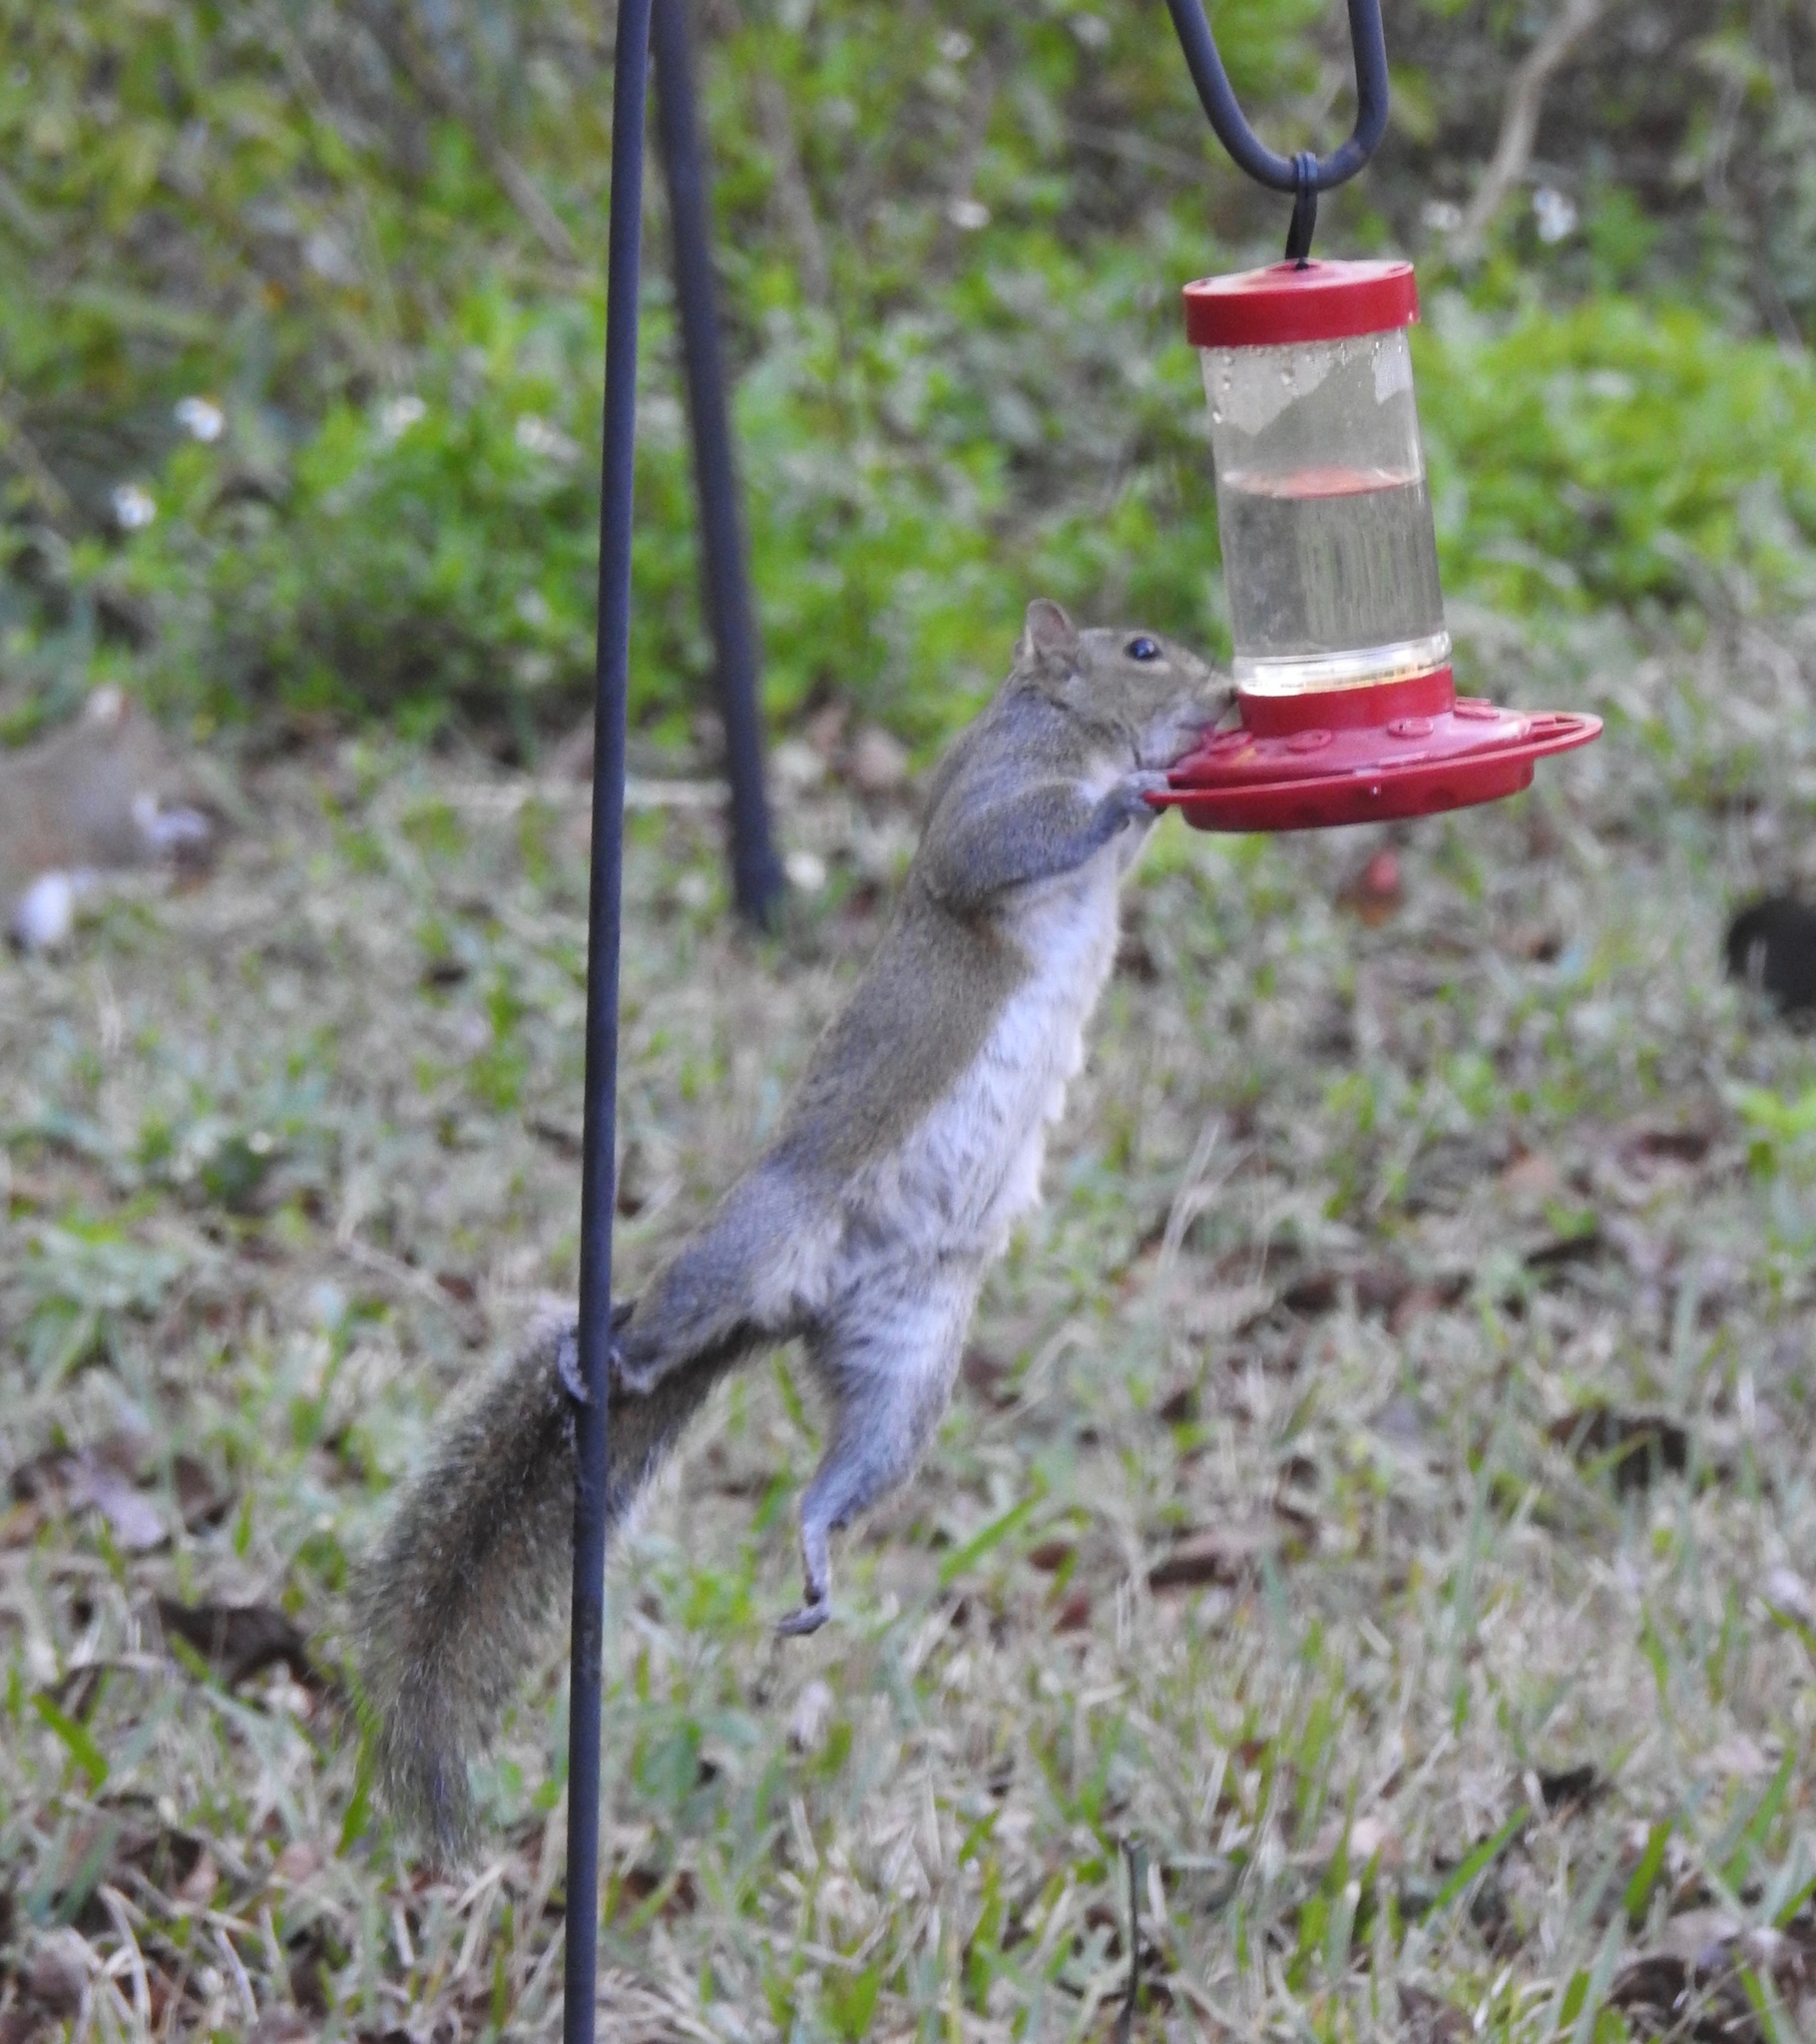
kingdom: Animalia
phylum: Chordata
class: Mammalia
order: Rodentia
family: Sciuridae
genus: Sciurus
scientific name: Sciurus carolinensis
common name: Eastern gray squirrel
